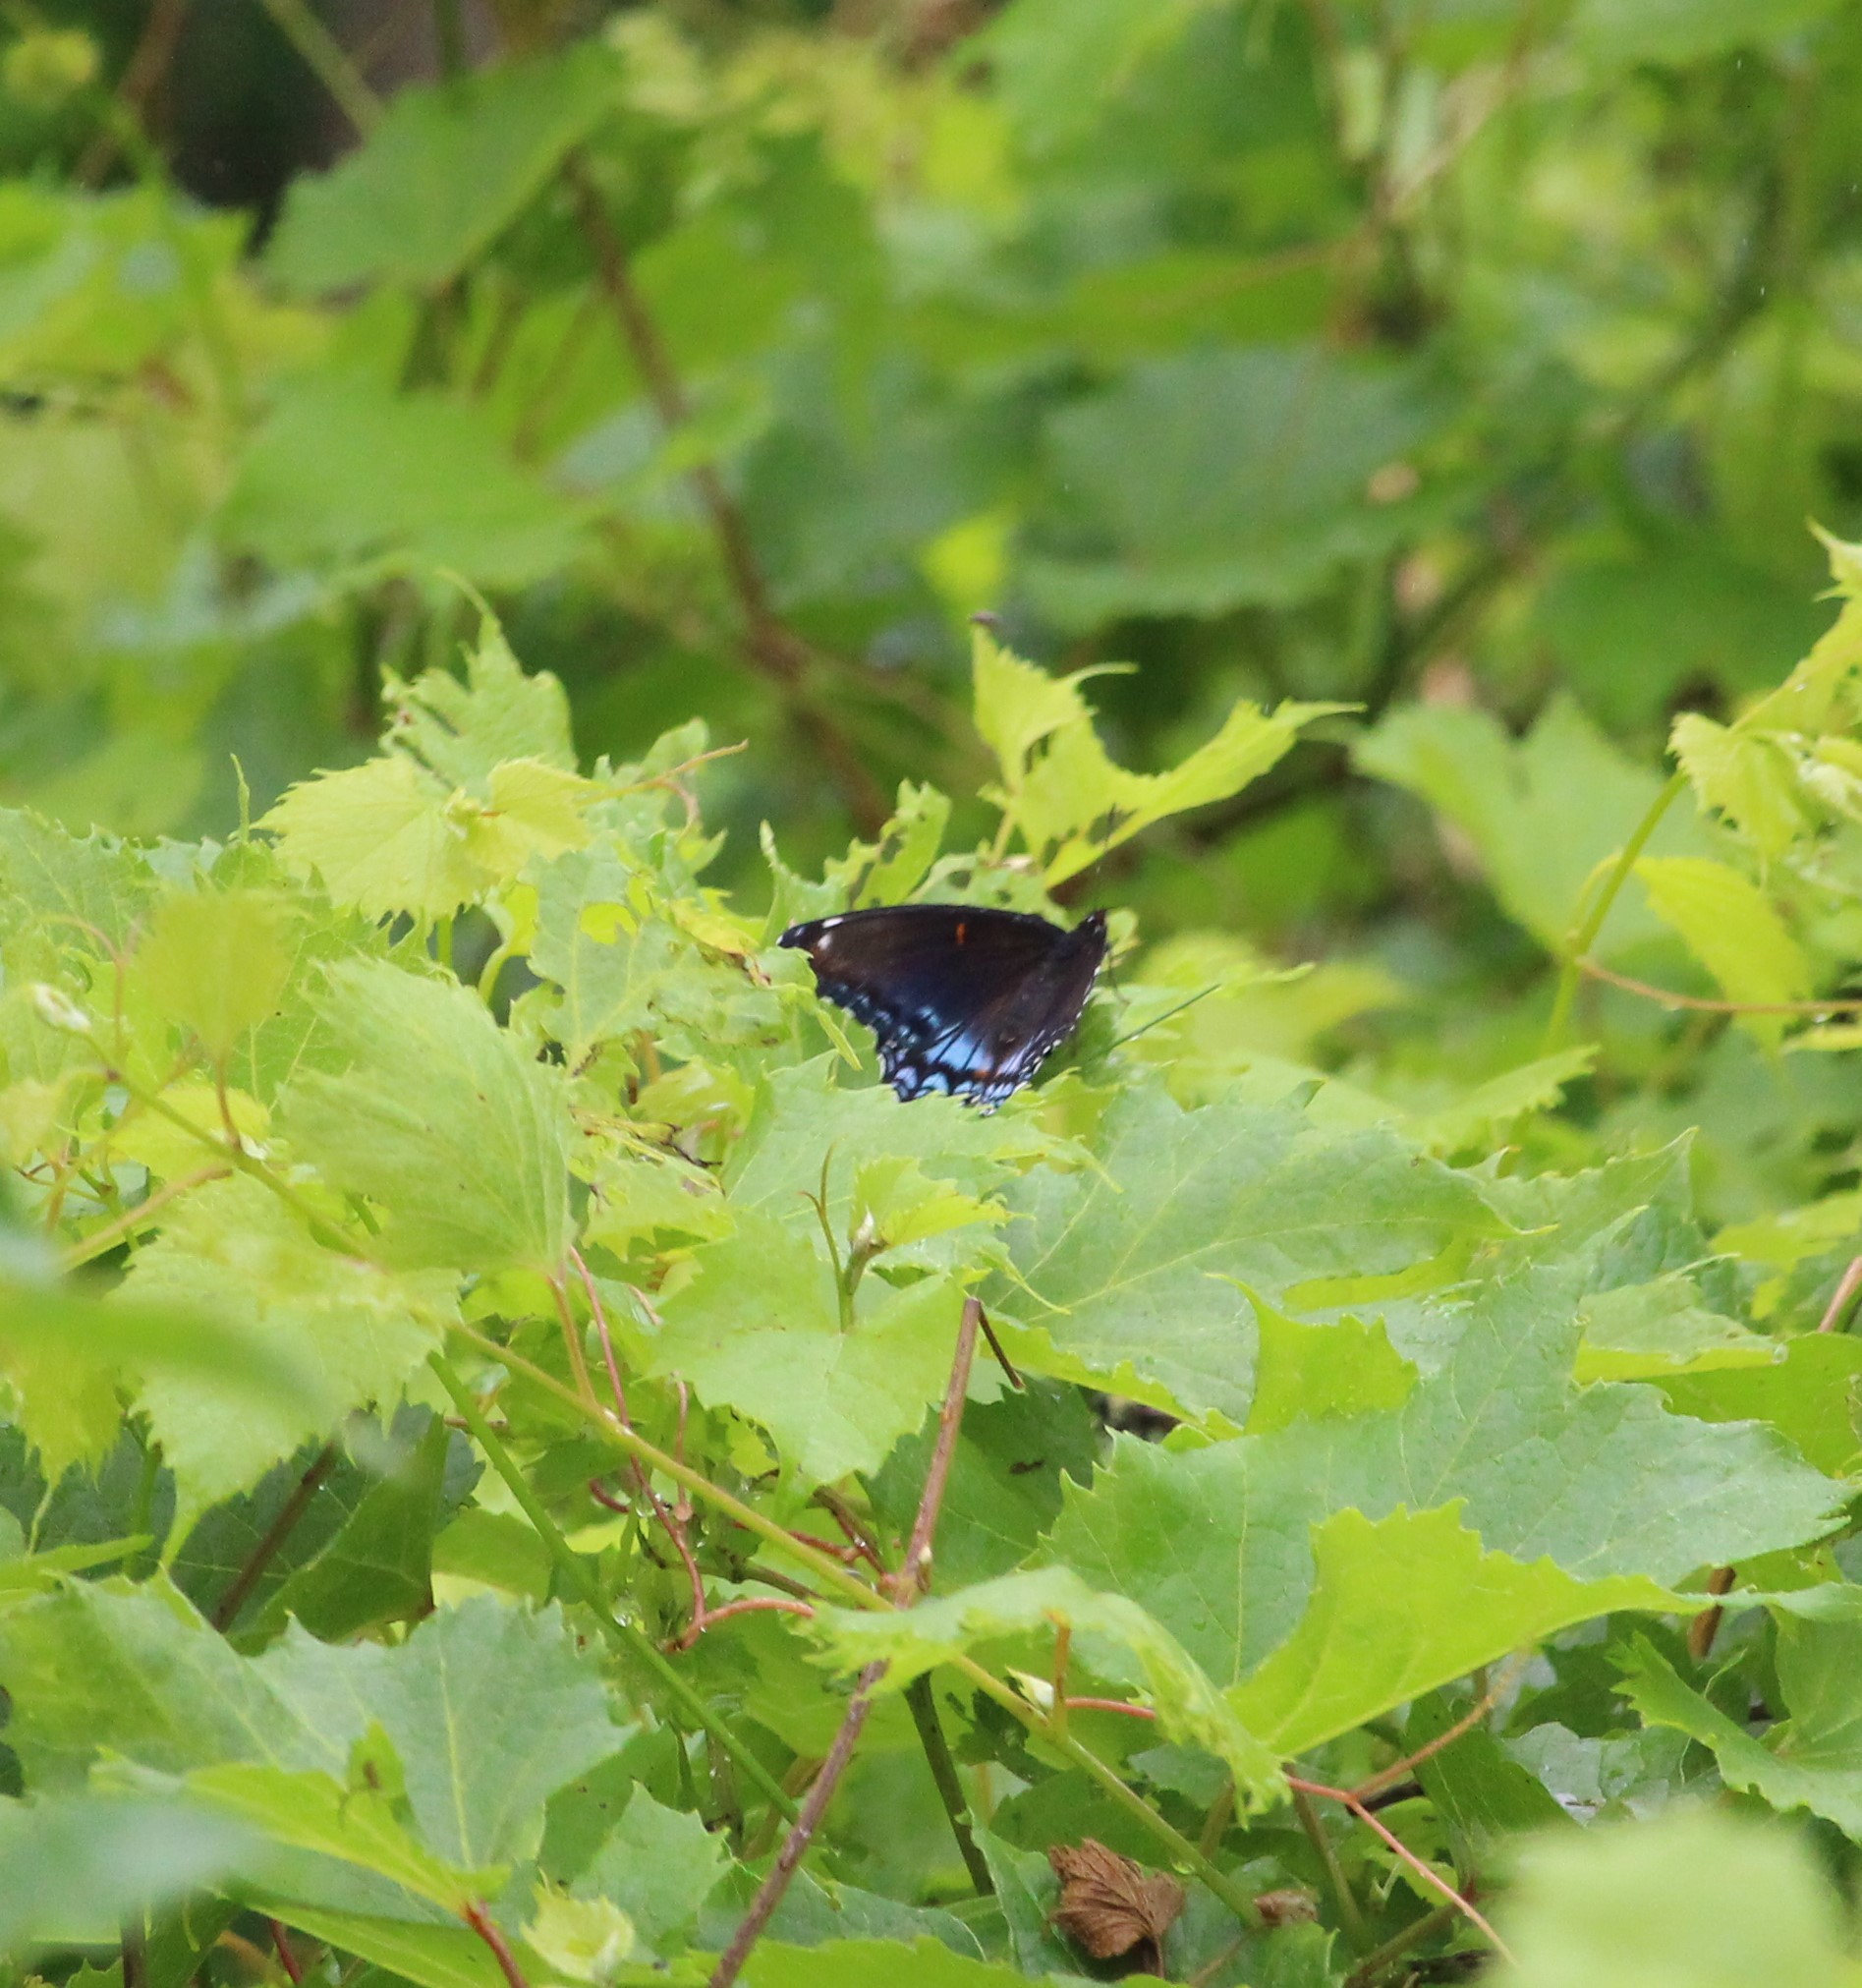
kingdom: Animalia
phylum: Arthropoda
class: Insecta
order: Lepidoptera
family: Nymphalidae
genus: Limenitis
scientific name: Limenitis astyanax
